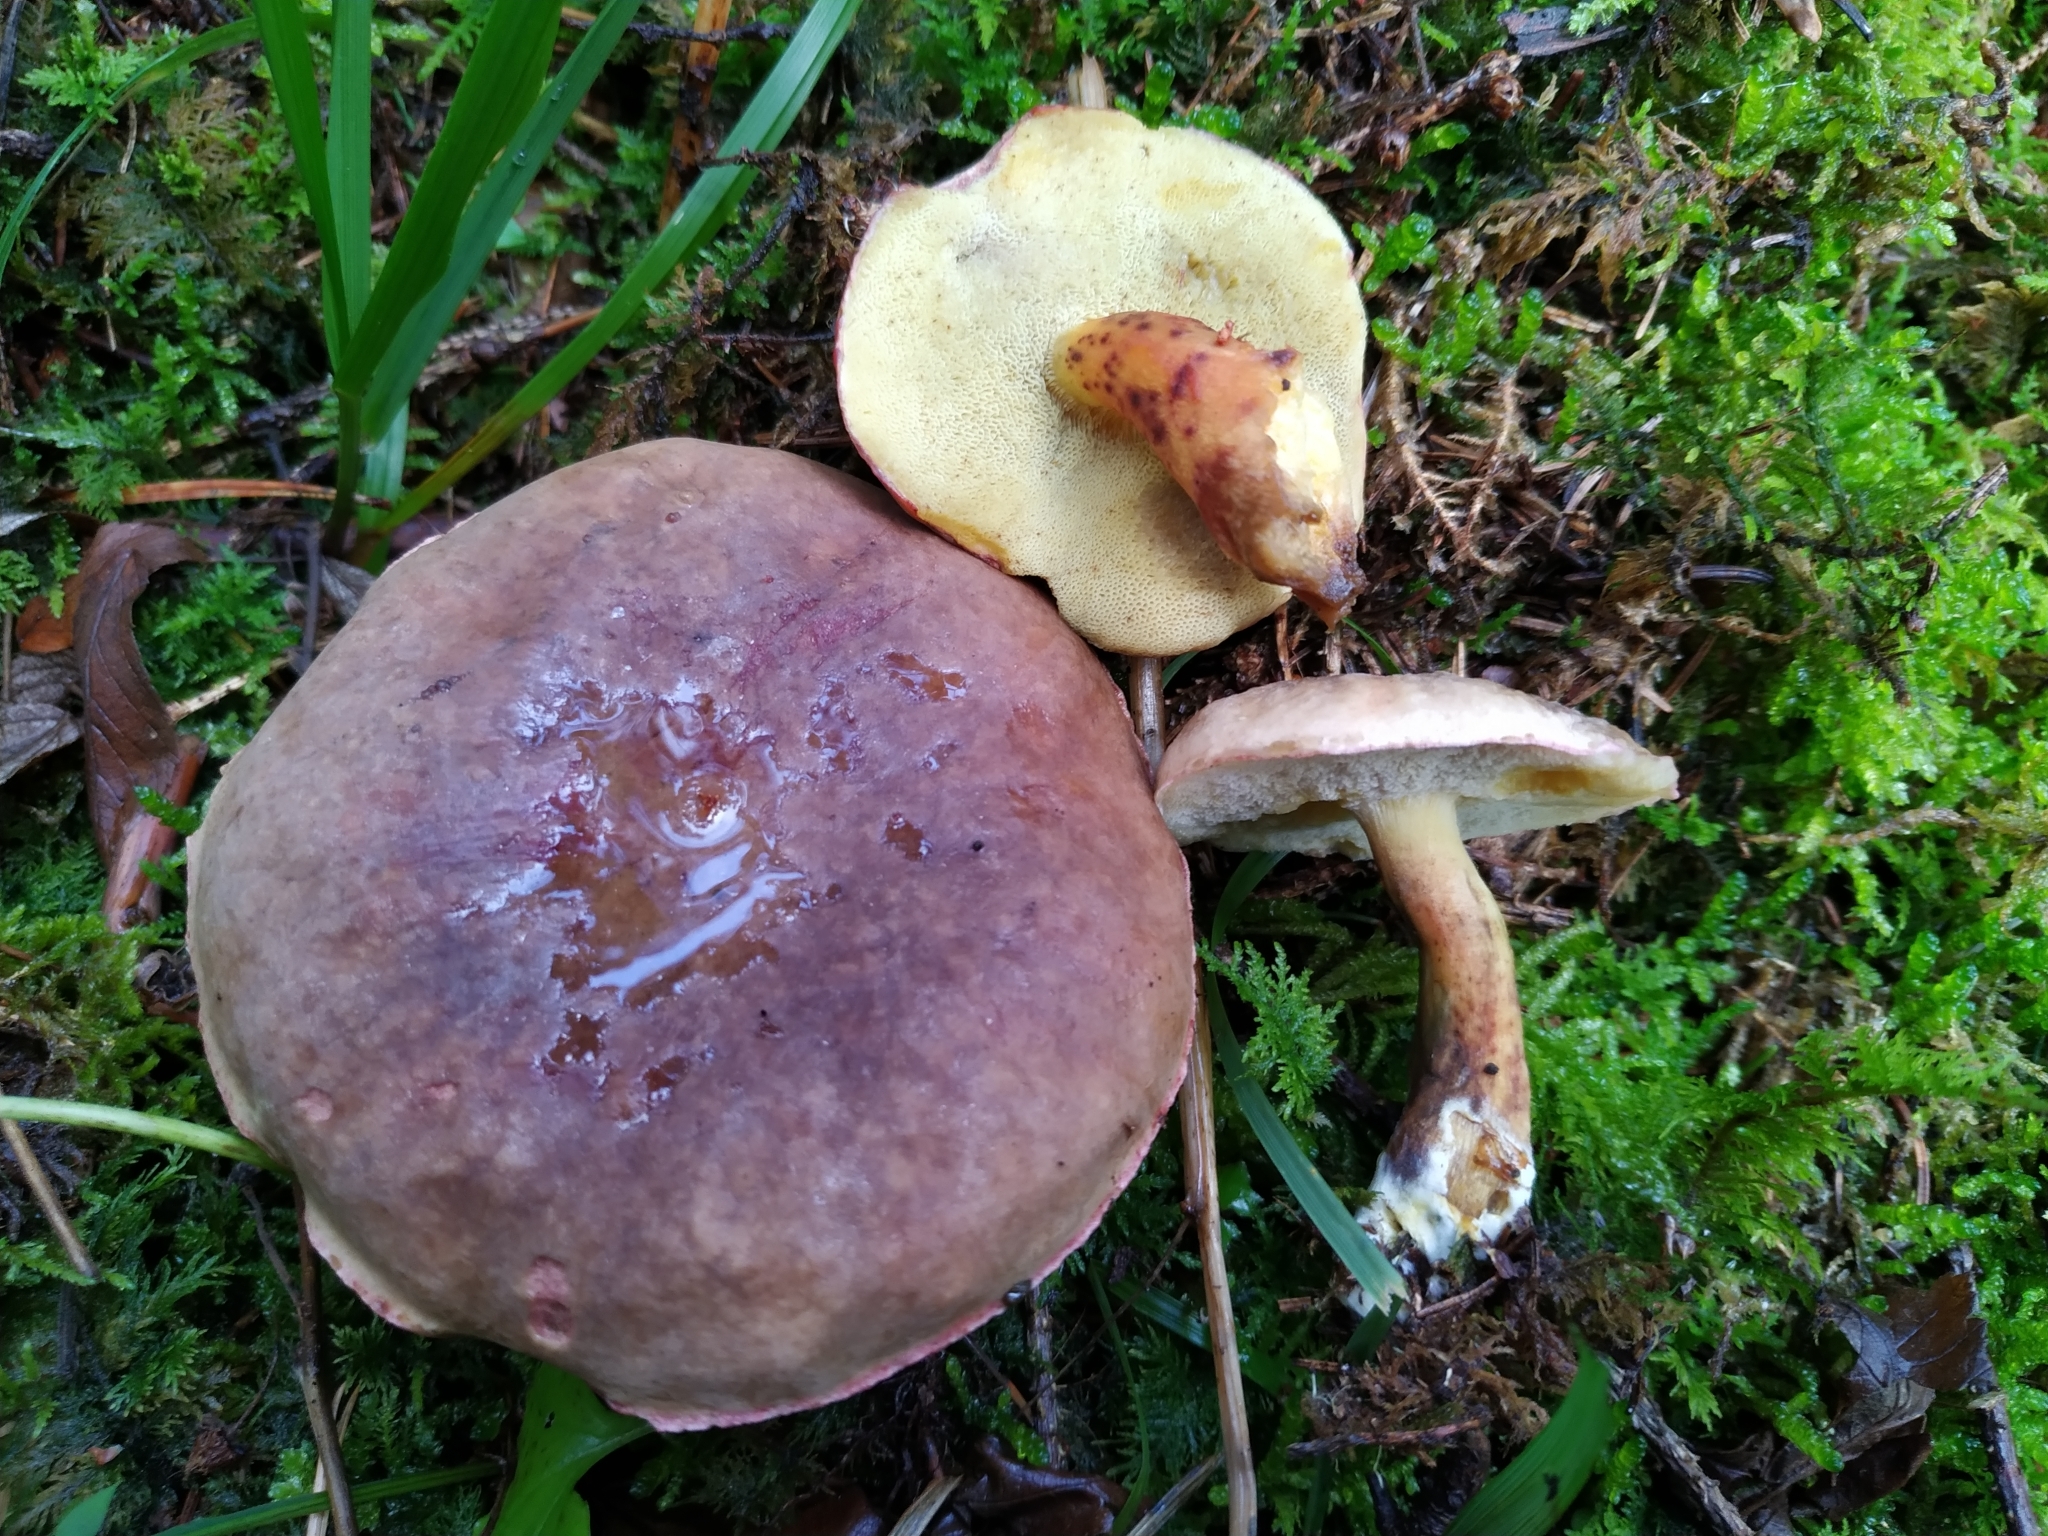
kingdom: Fungi
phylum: Basidiomycota
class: Agaricomycetes
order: Boletales
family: Boletaceae
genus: Xerocomellus
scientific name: Xerocomellus pruinatus
